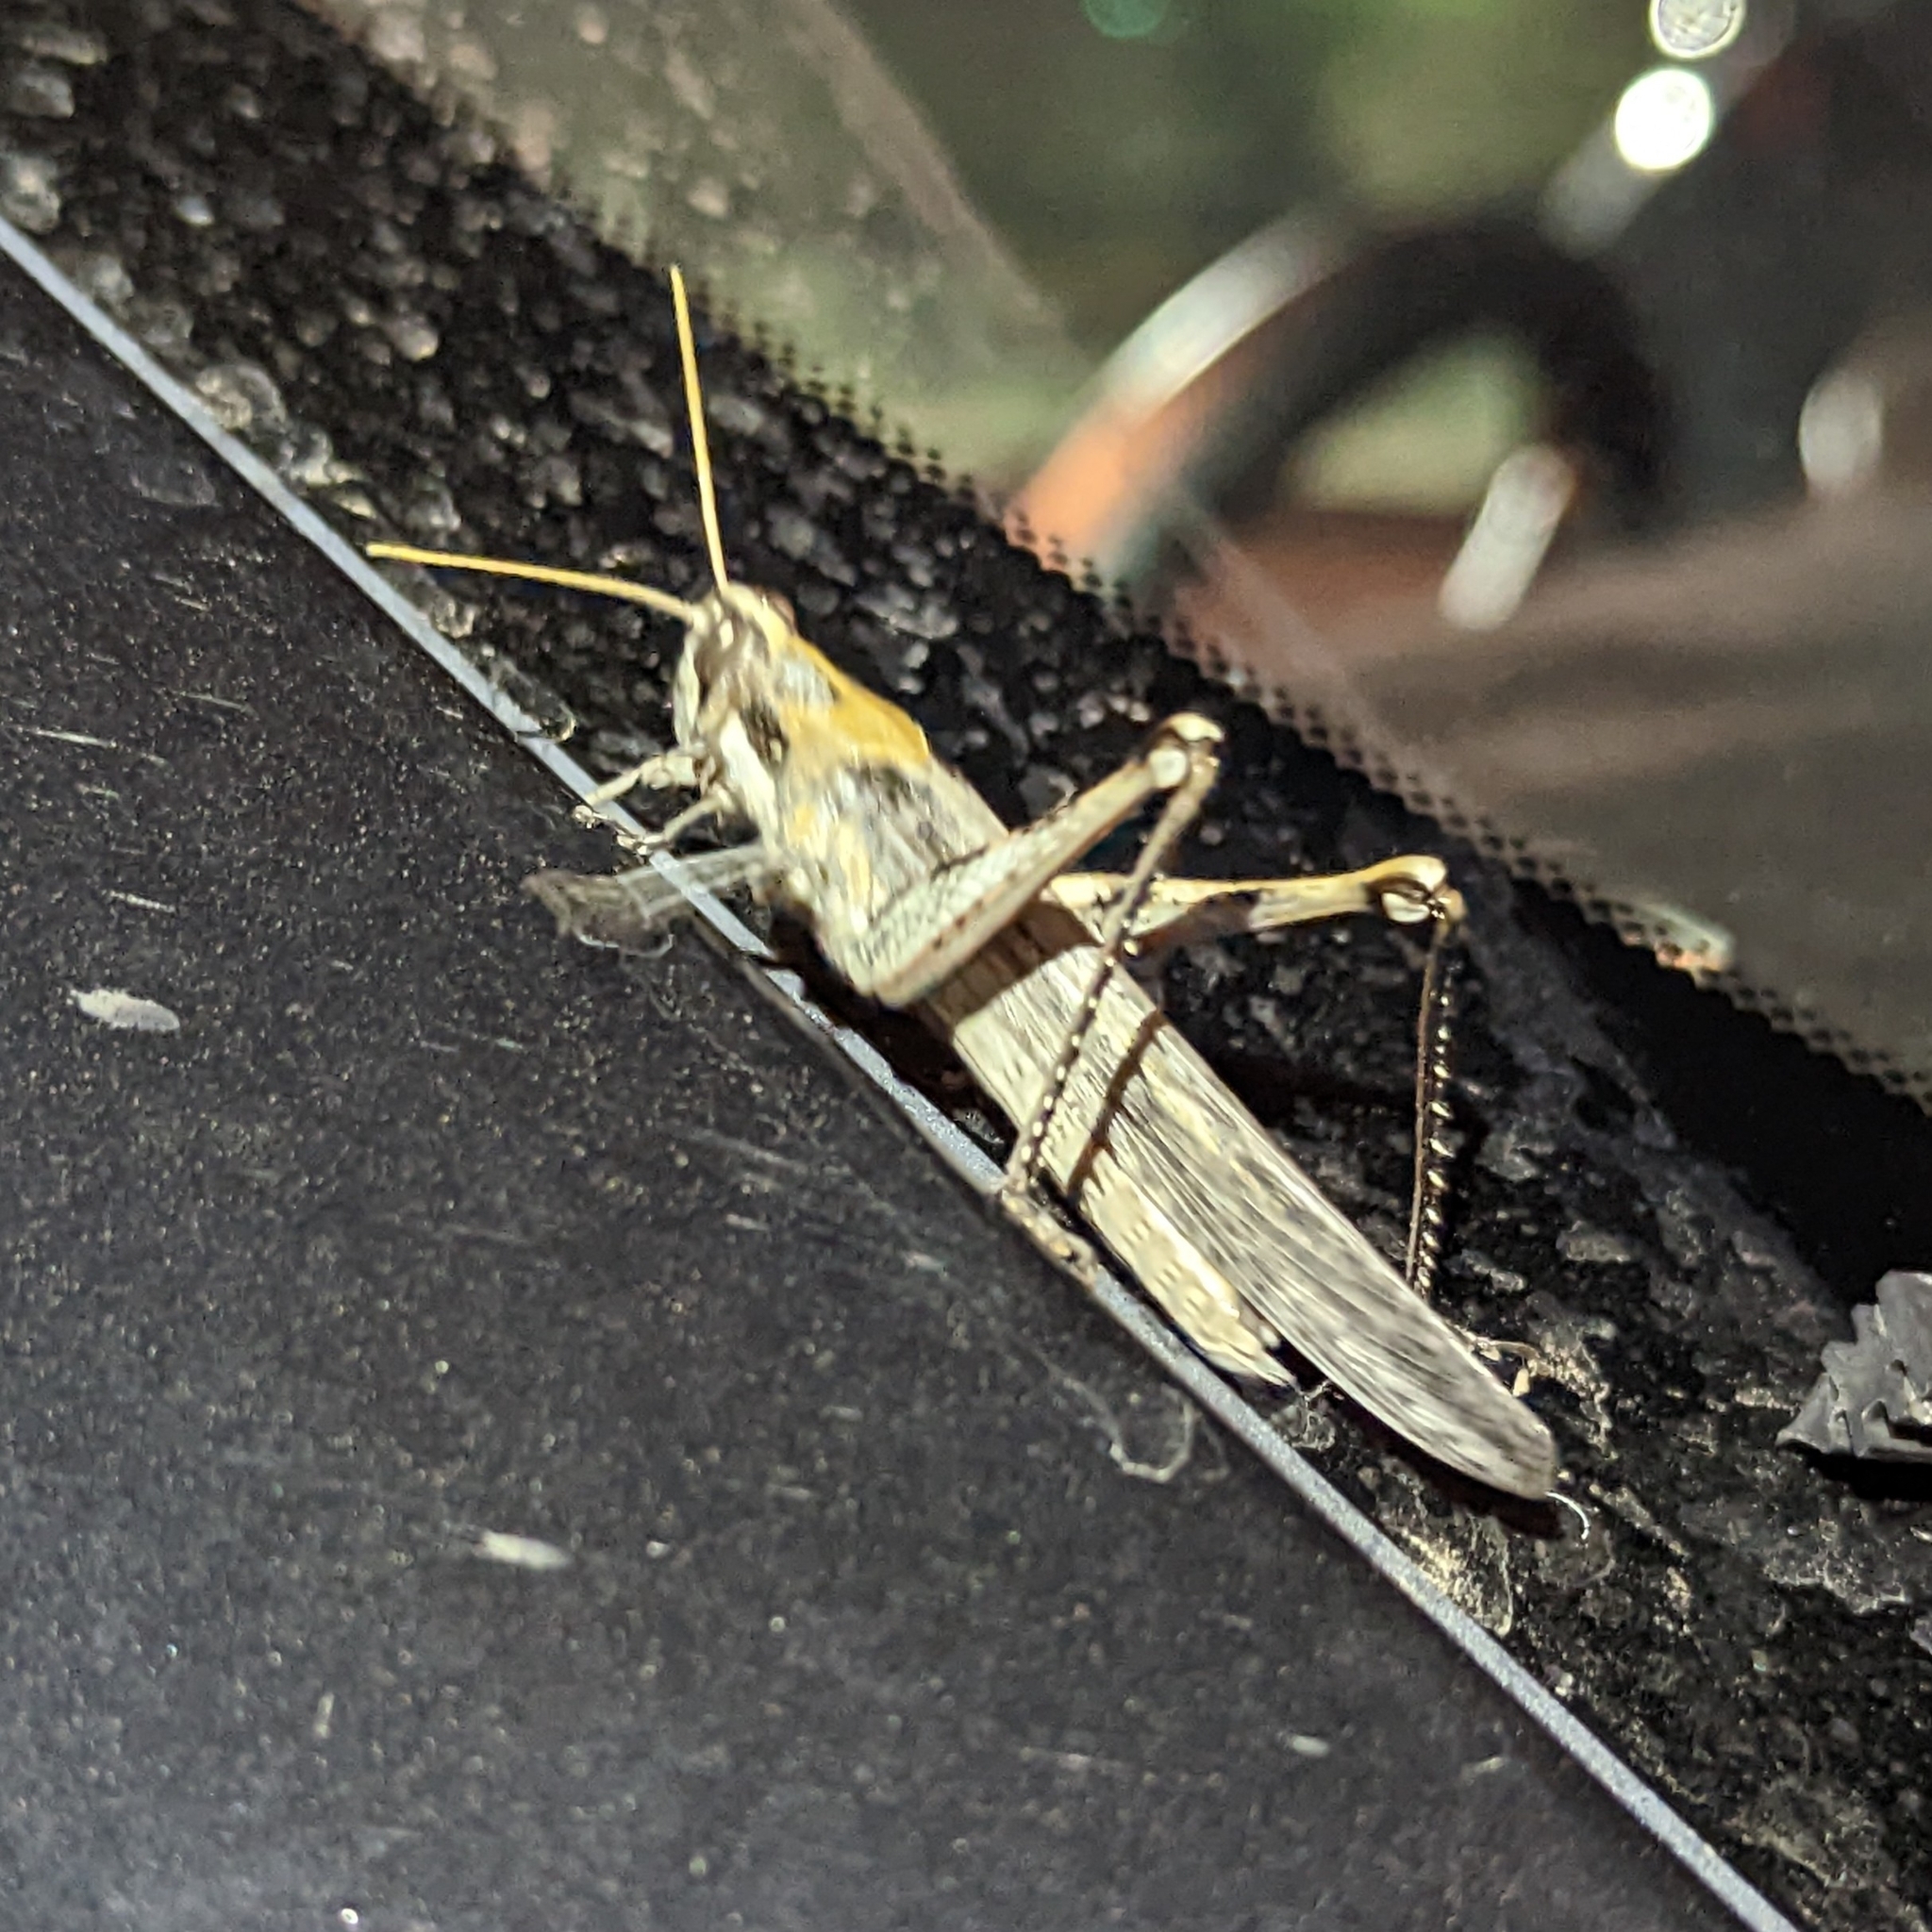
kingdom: Animalia
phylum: Arthropoda
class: Insecta
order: Orthoptera
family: Acrididae
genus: Schistocerca
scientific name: Schistocerca nitens
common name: Vagrant grasshopper
